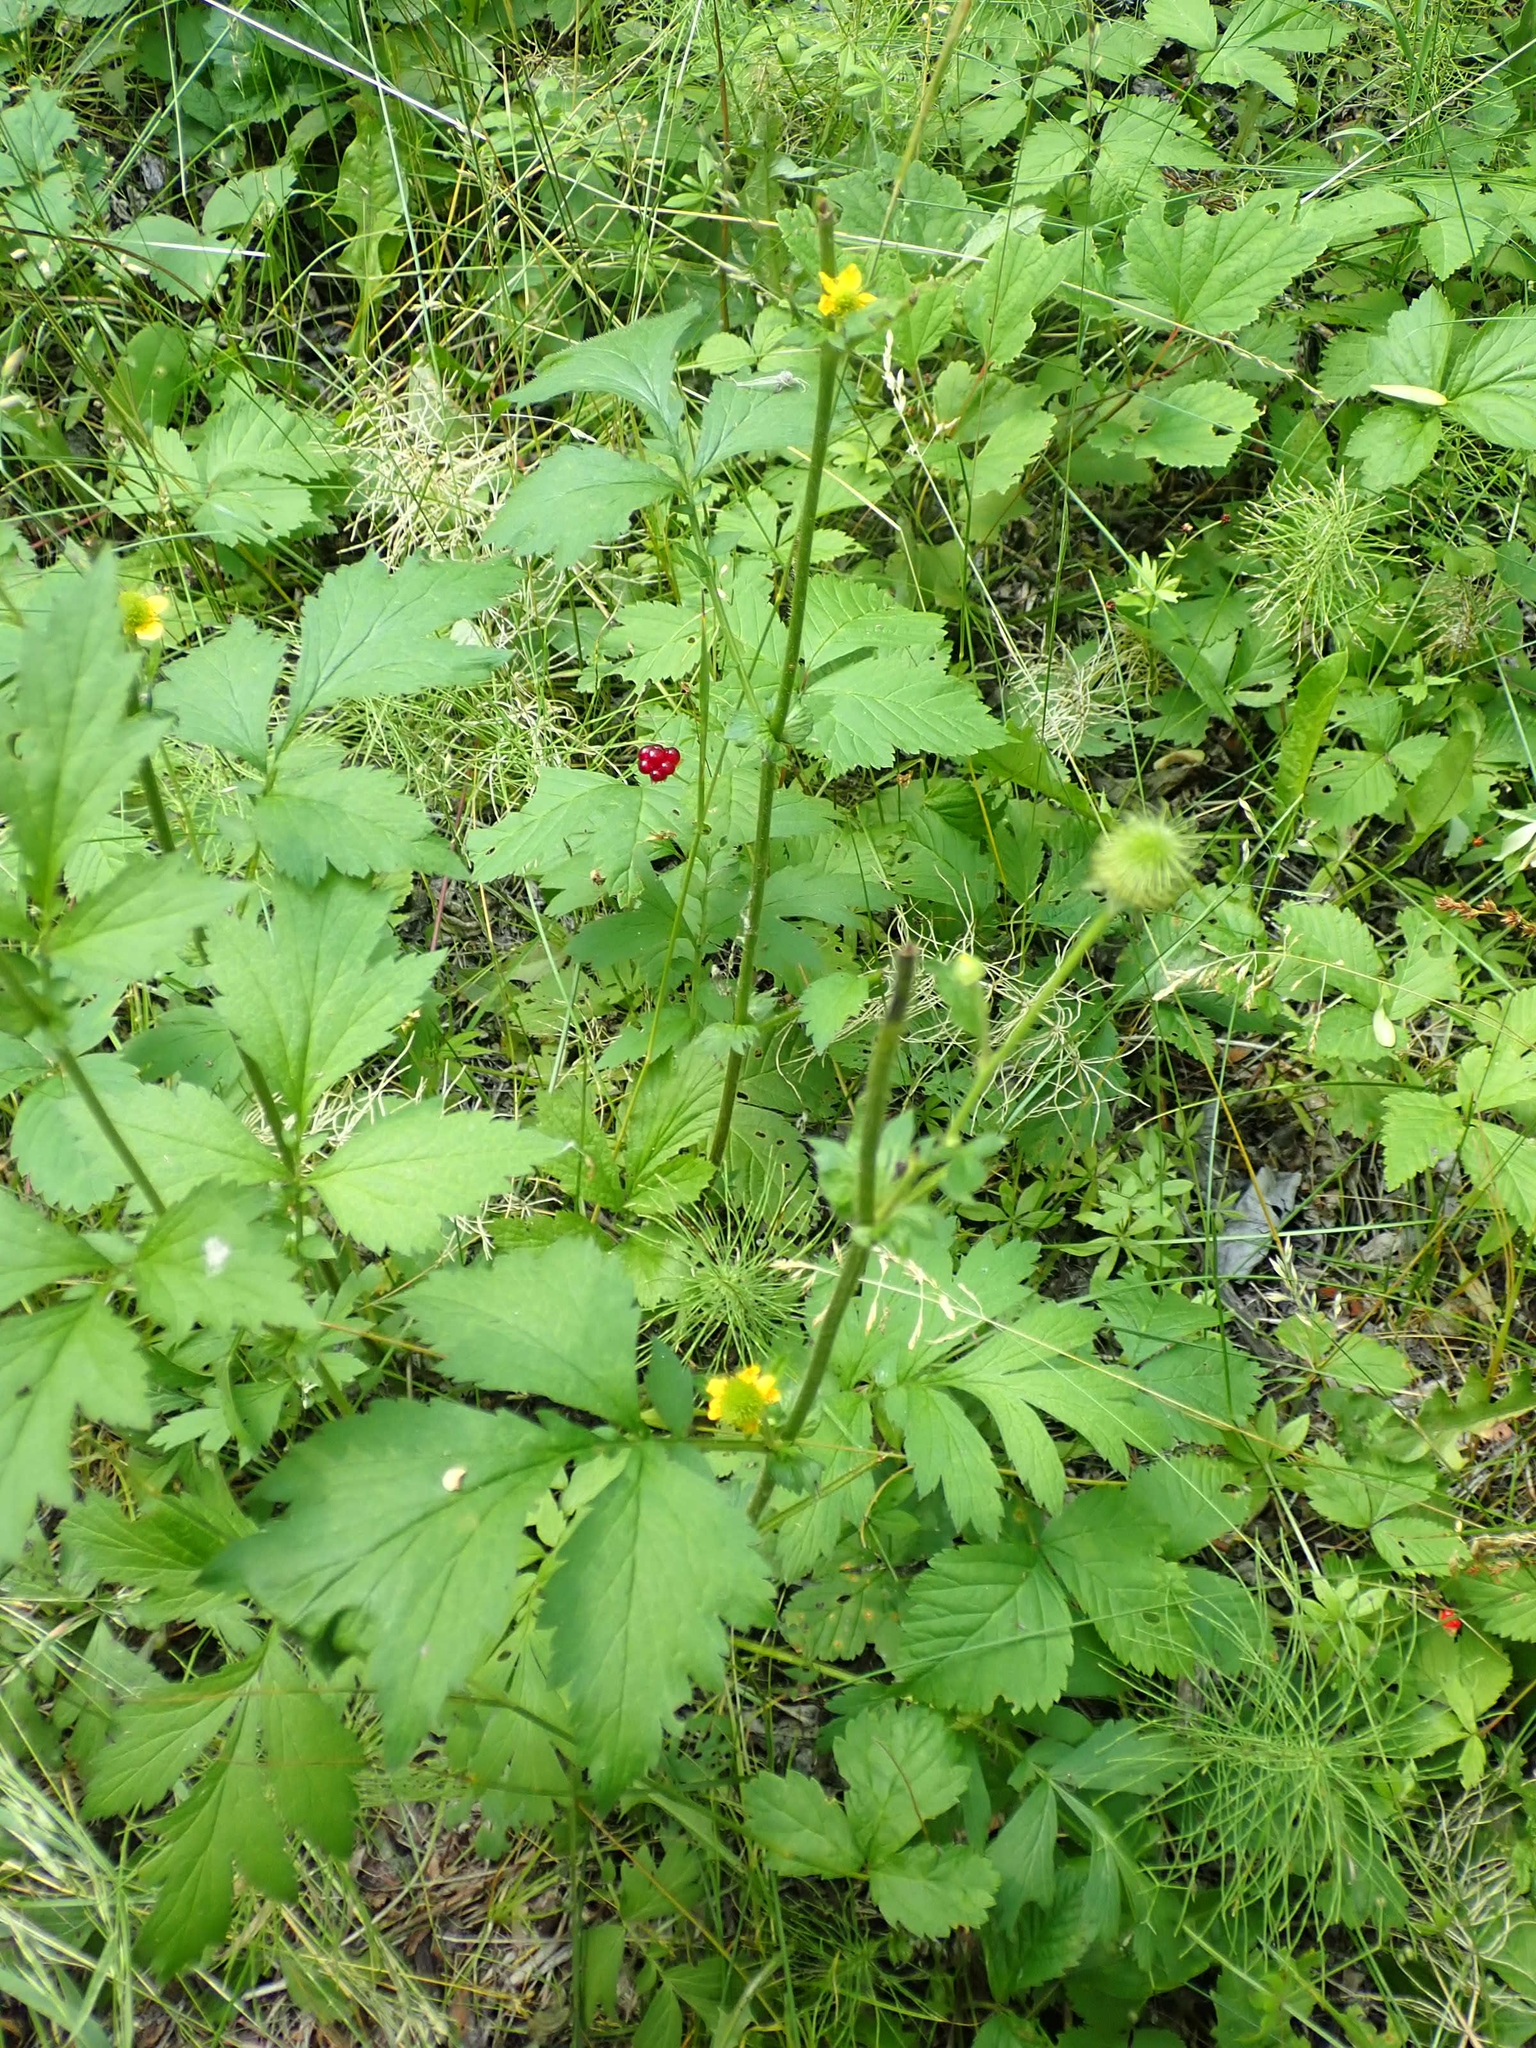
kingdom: Plantae
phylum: Tracheophyta
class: Magnoliopsida
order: Rosales
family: Rosaceae
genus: Geum
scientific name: Geum aleppicum
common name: Yellow avens
